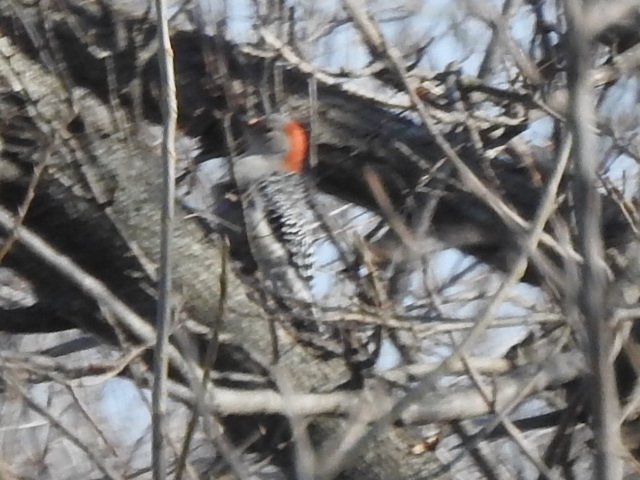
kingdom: Animalia
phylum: Chordata
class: Aves
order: Piciformes
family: Picidae
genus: Melanerpes
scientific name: Melanerpes carolinus
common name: Red-bellied woodpecker
